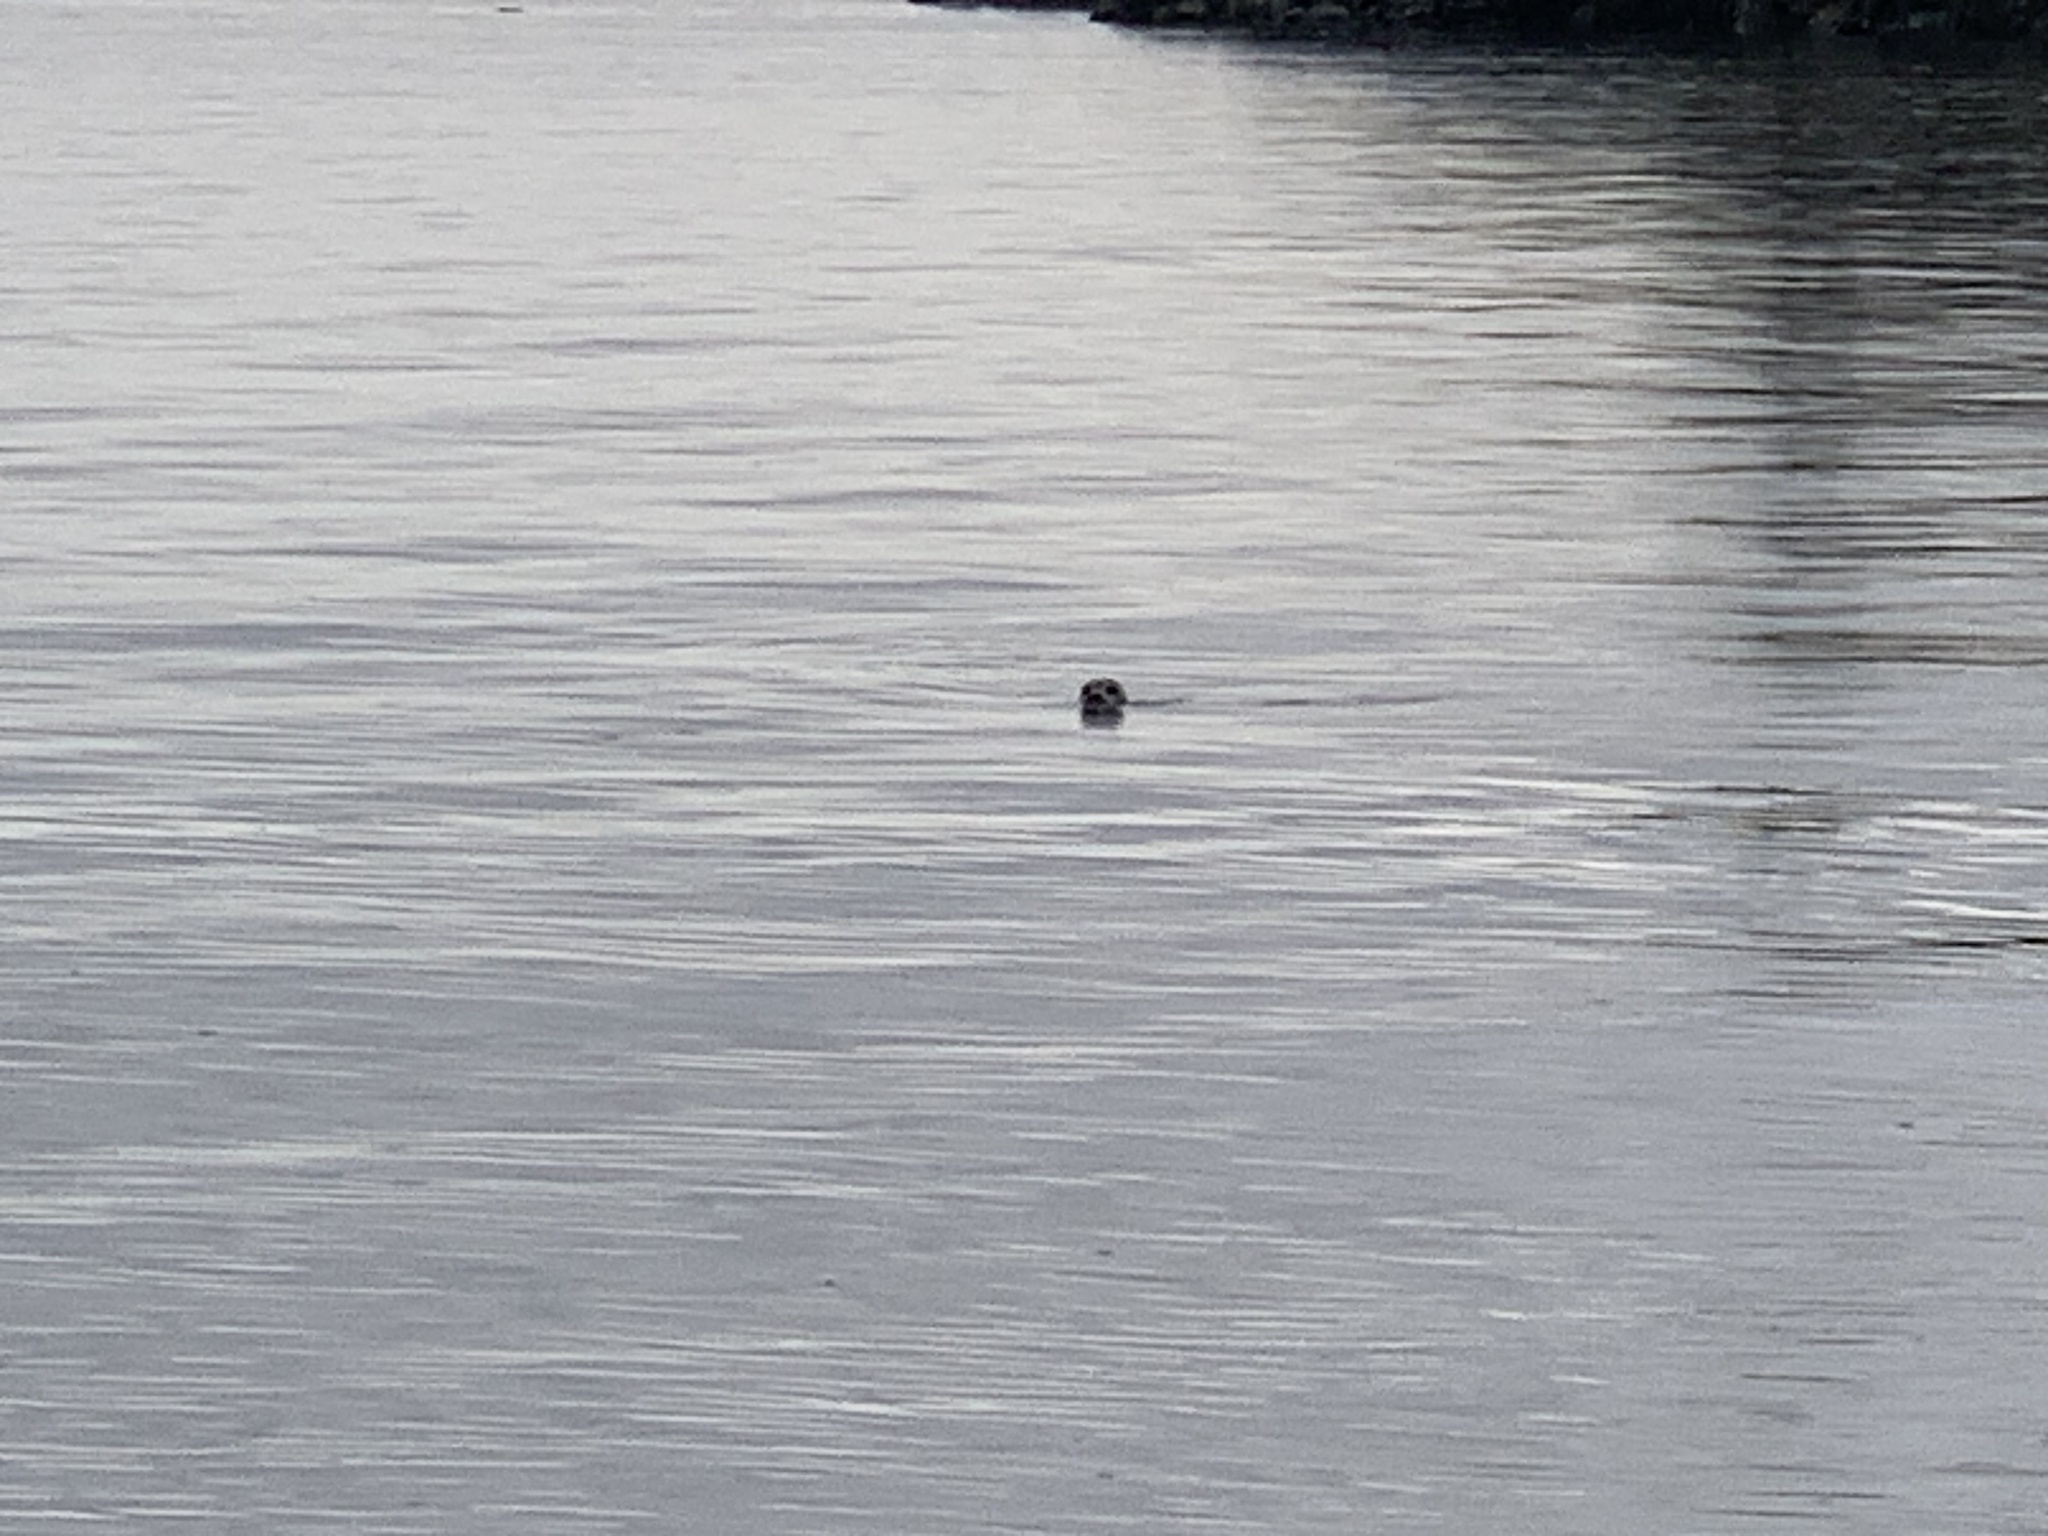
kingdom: Animalia
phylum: Chordata
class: Mammalia
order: Carnivora
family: Phocidae
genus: Phoca
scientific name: Phoca vitulina
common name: Harbor seal
